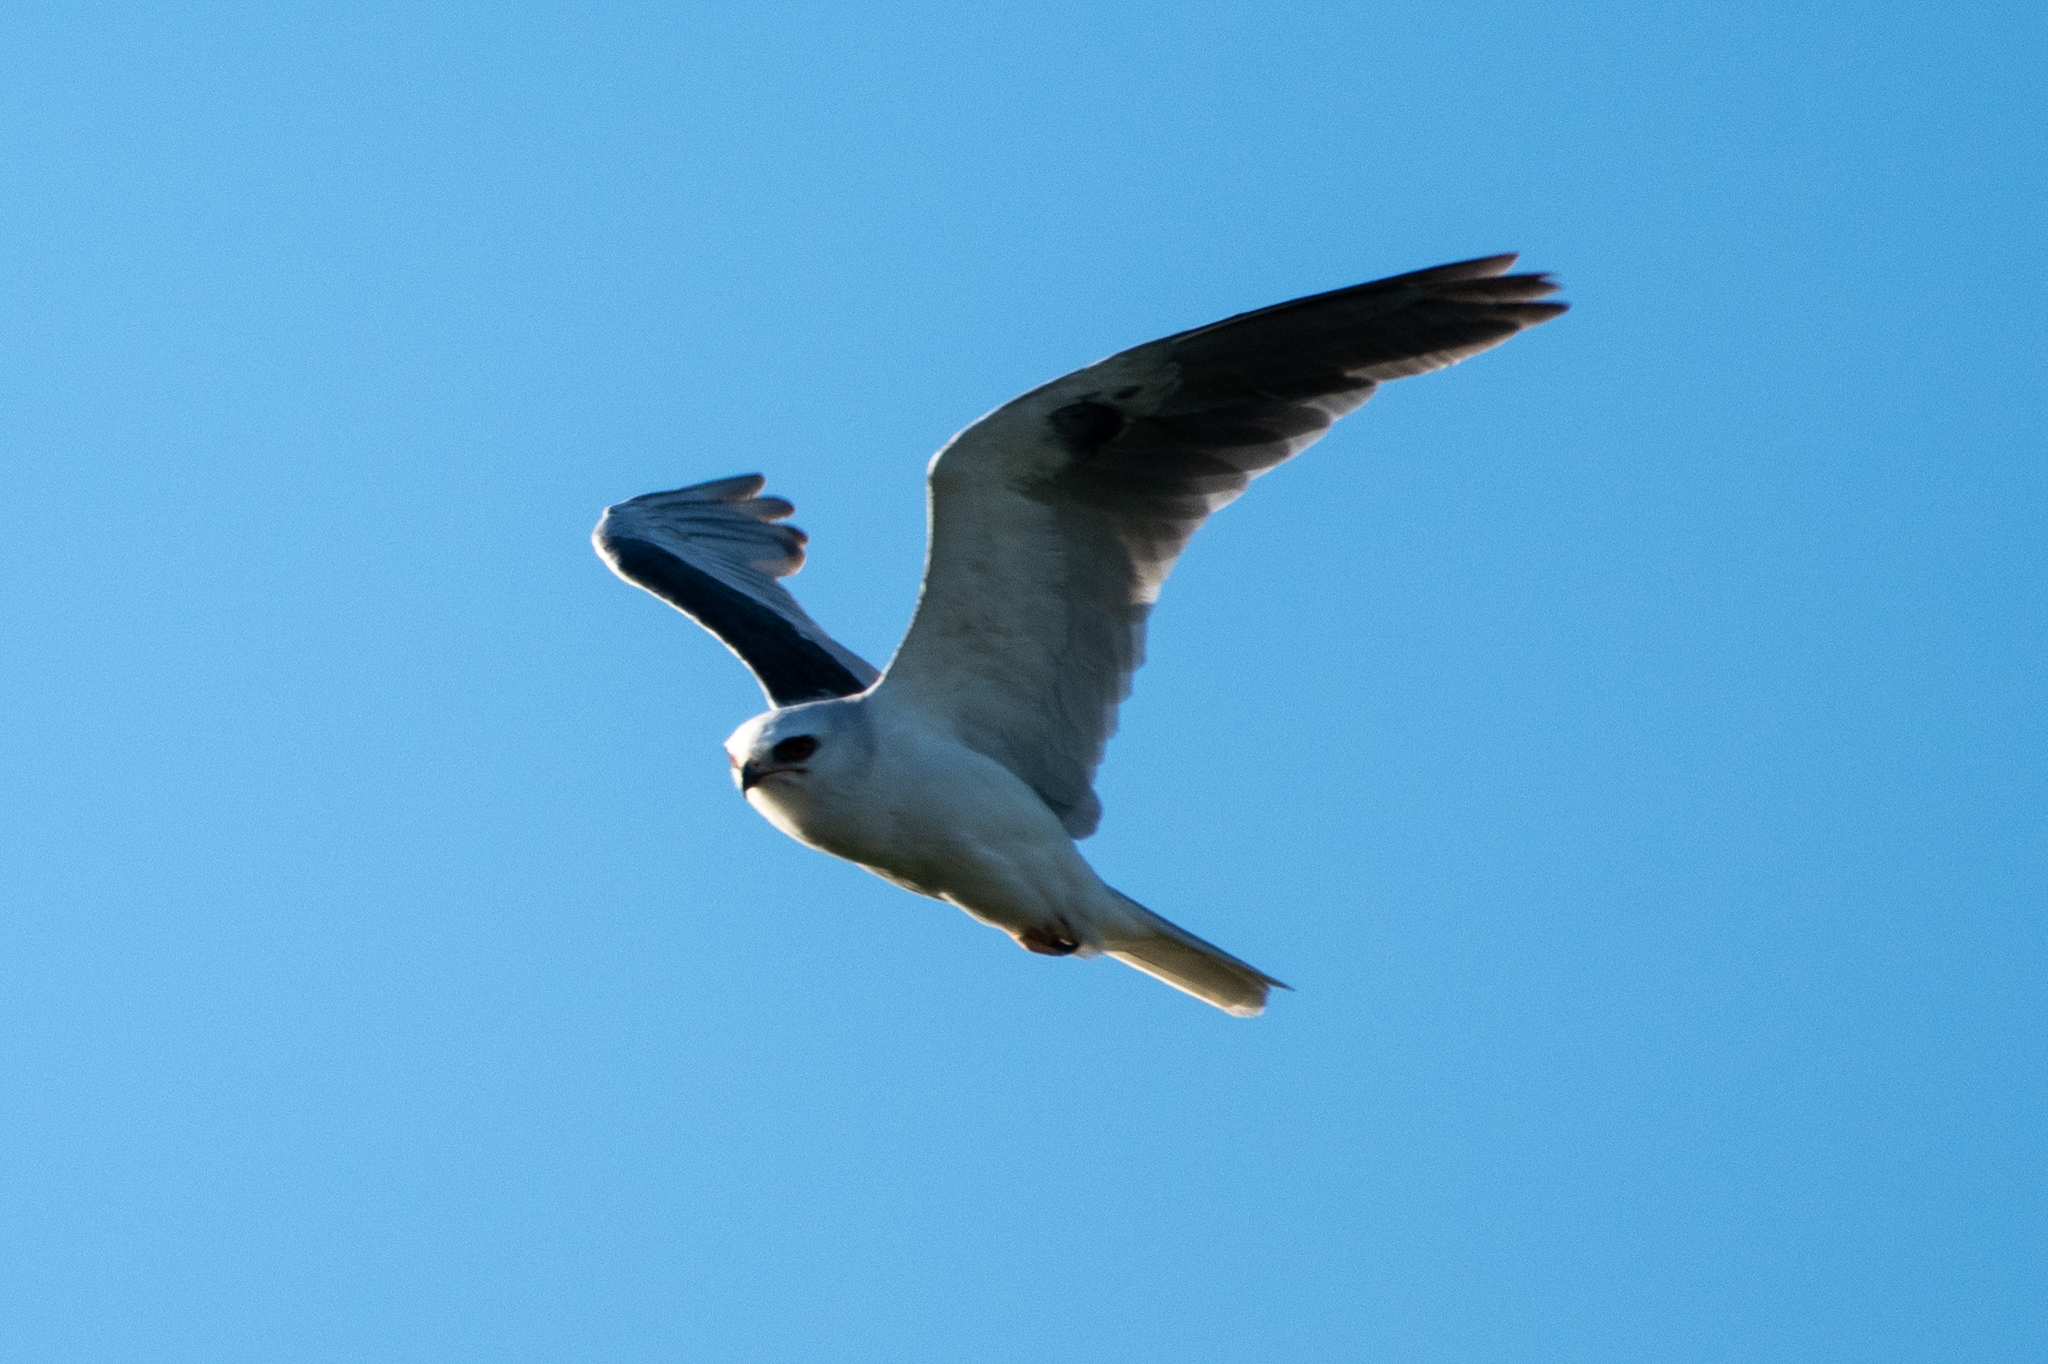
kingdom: Animalia
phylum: Chordata
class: Aves
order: Accipitriformes
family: Accipitridae
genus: Elanus
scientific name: Elanus leucurus
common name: White-tailed kite
